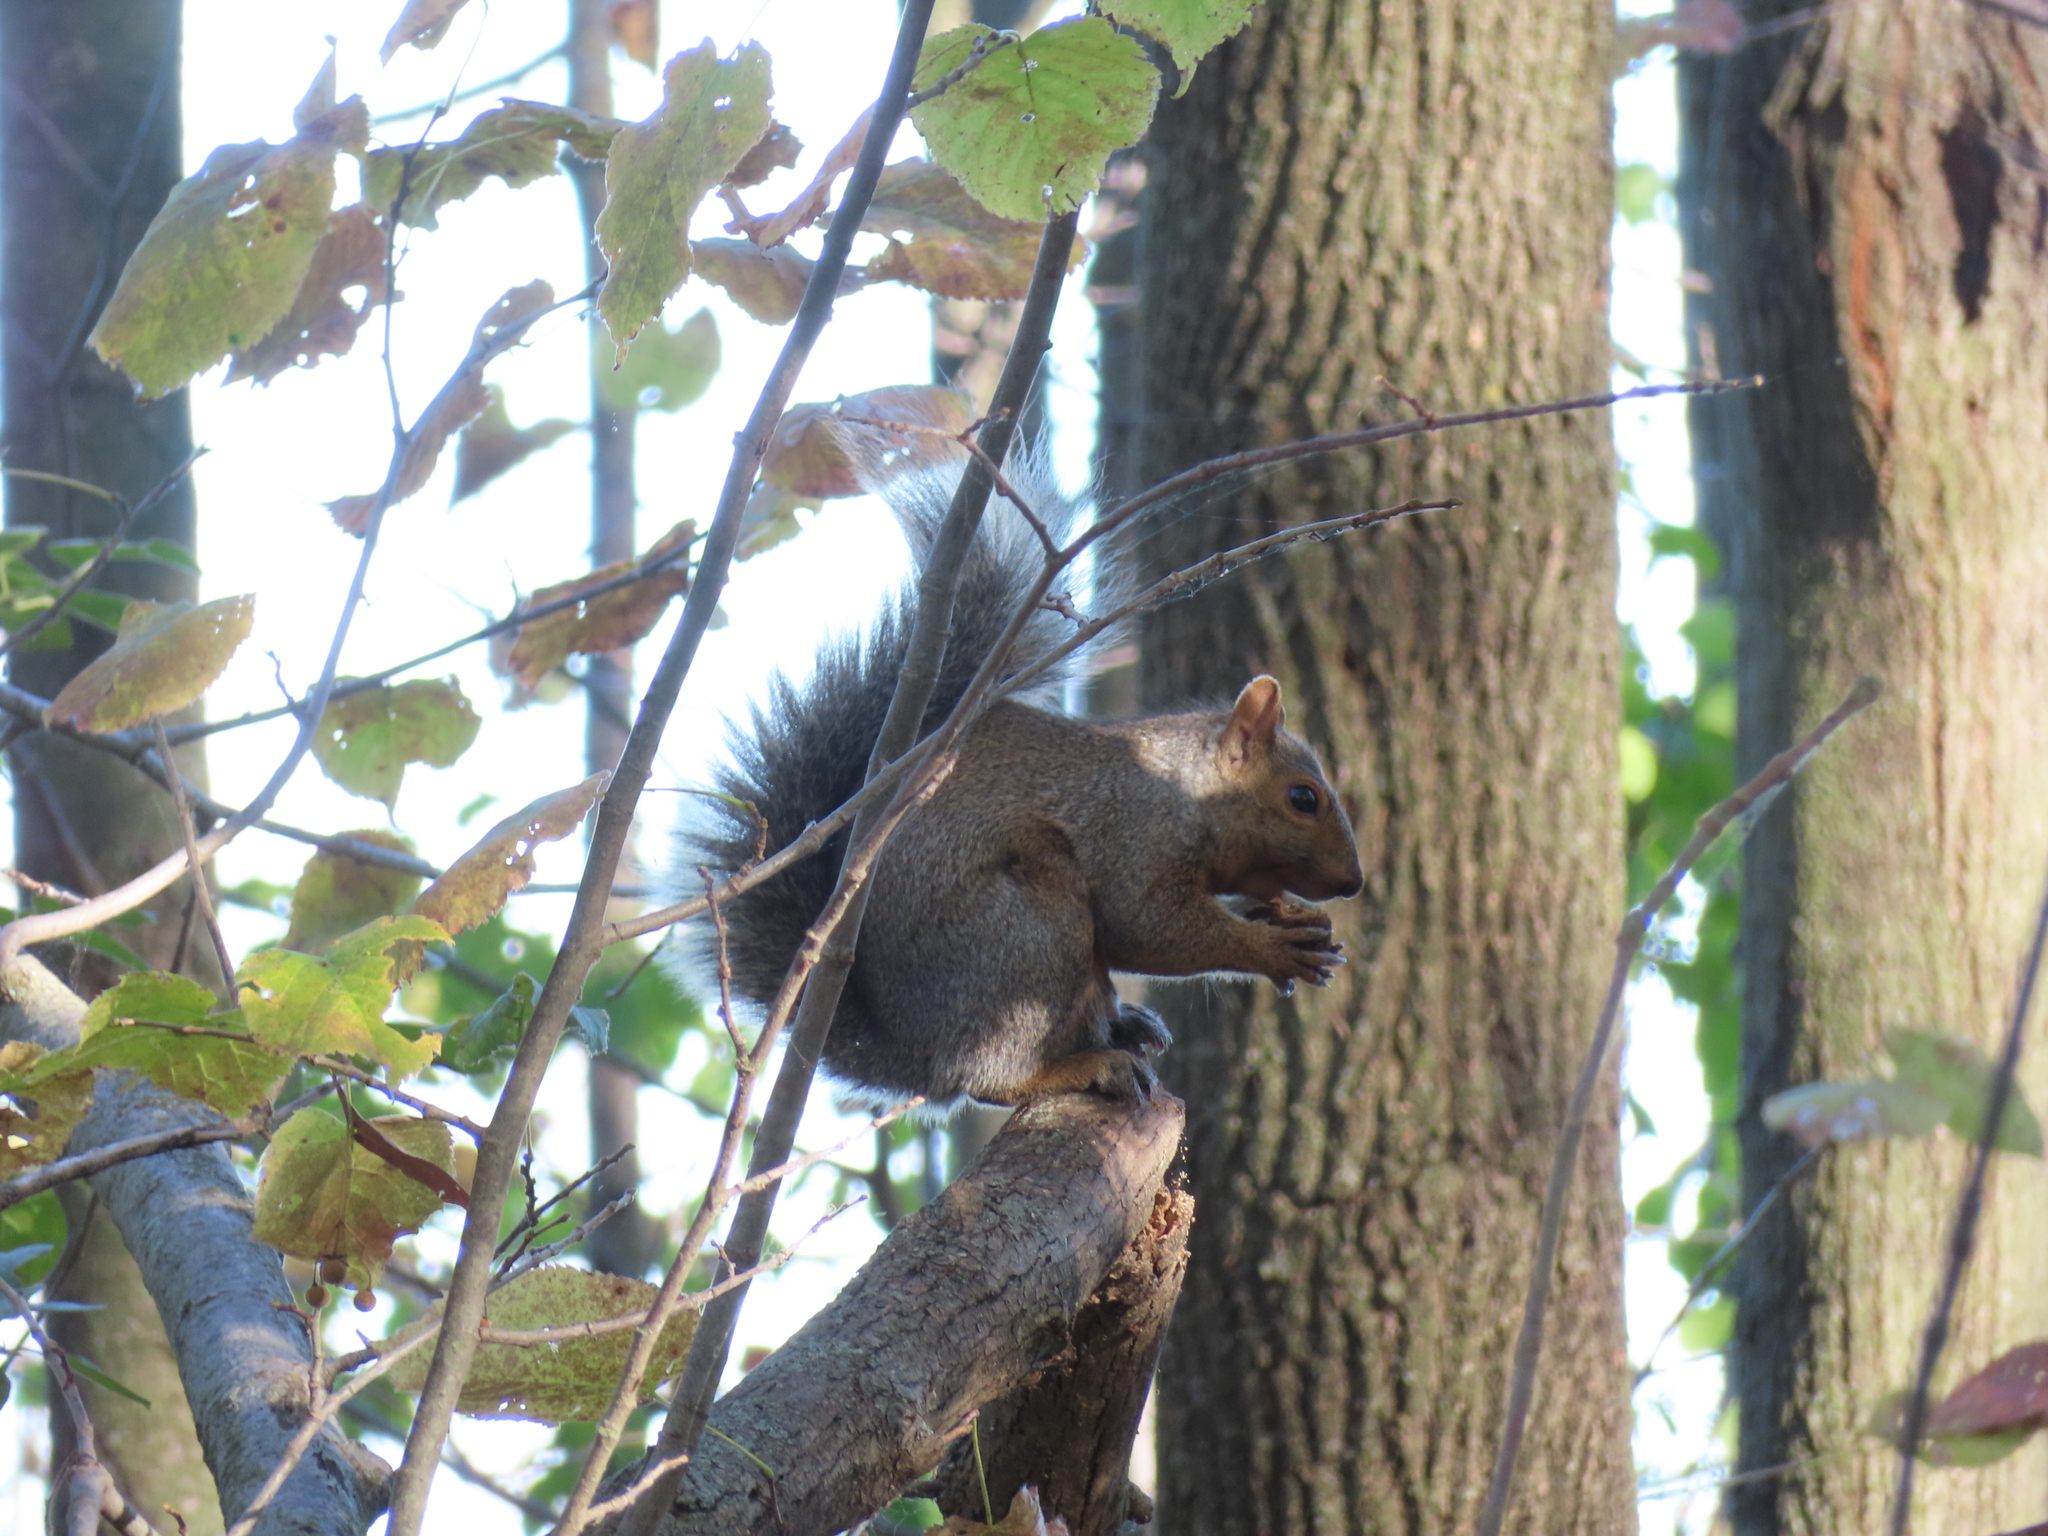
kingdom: Animalia
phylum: Chordata
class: Mammalia
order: Rodentia
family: Sciuridae
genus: Sciurus
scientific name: Sciurus carolinensis
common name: Eastern gray squirrel
